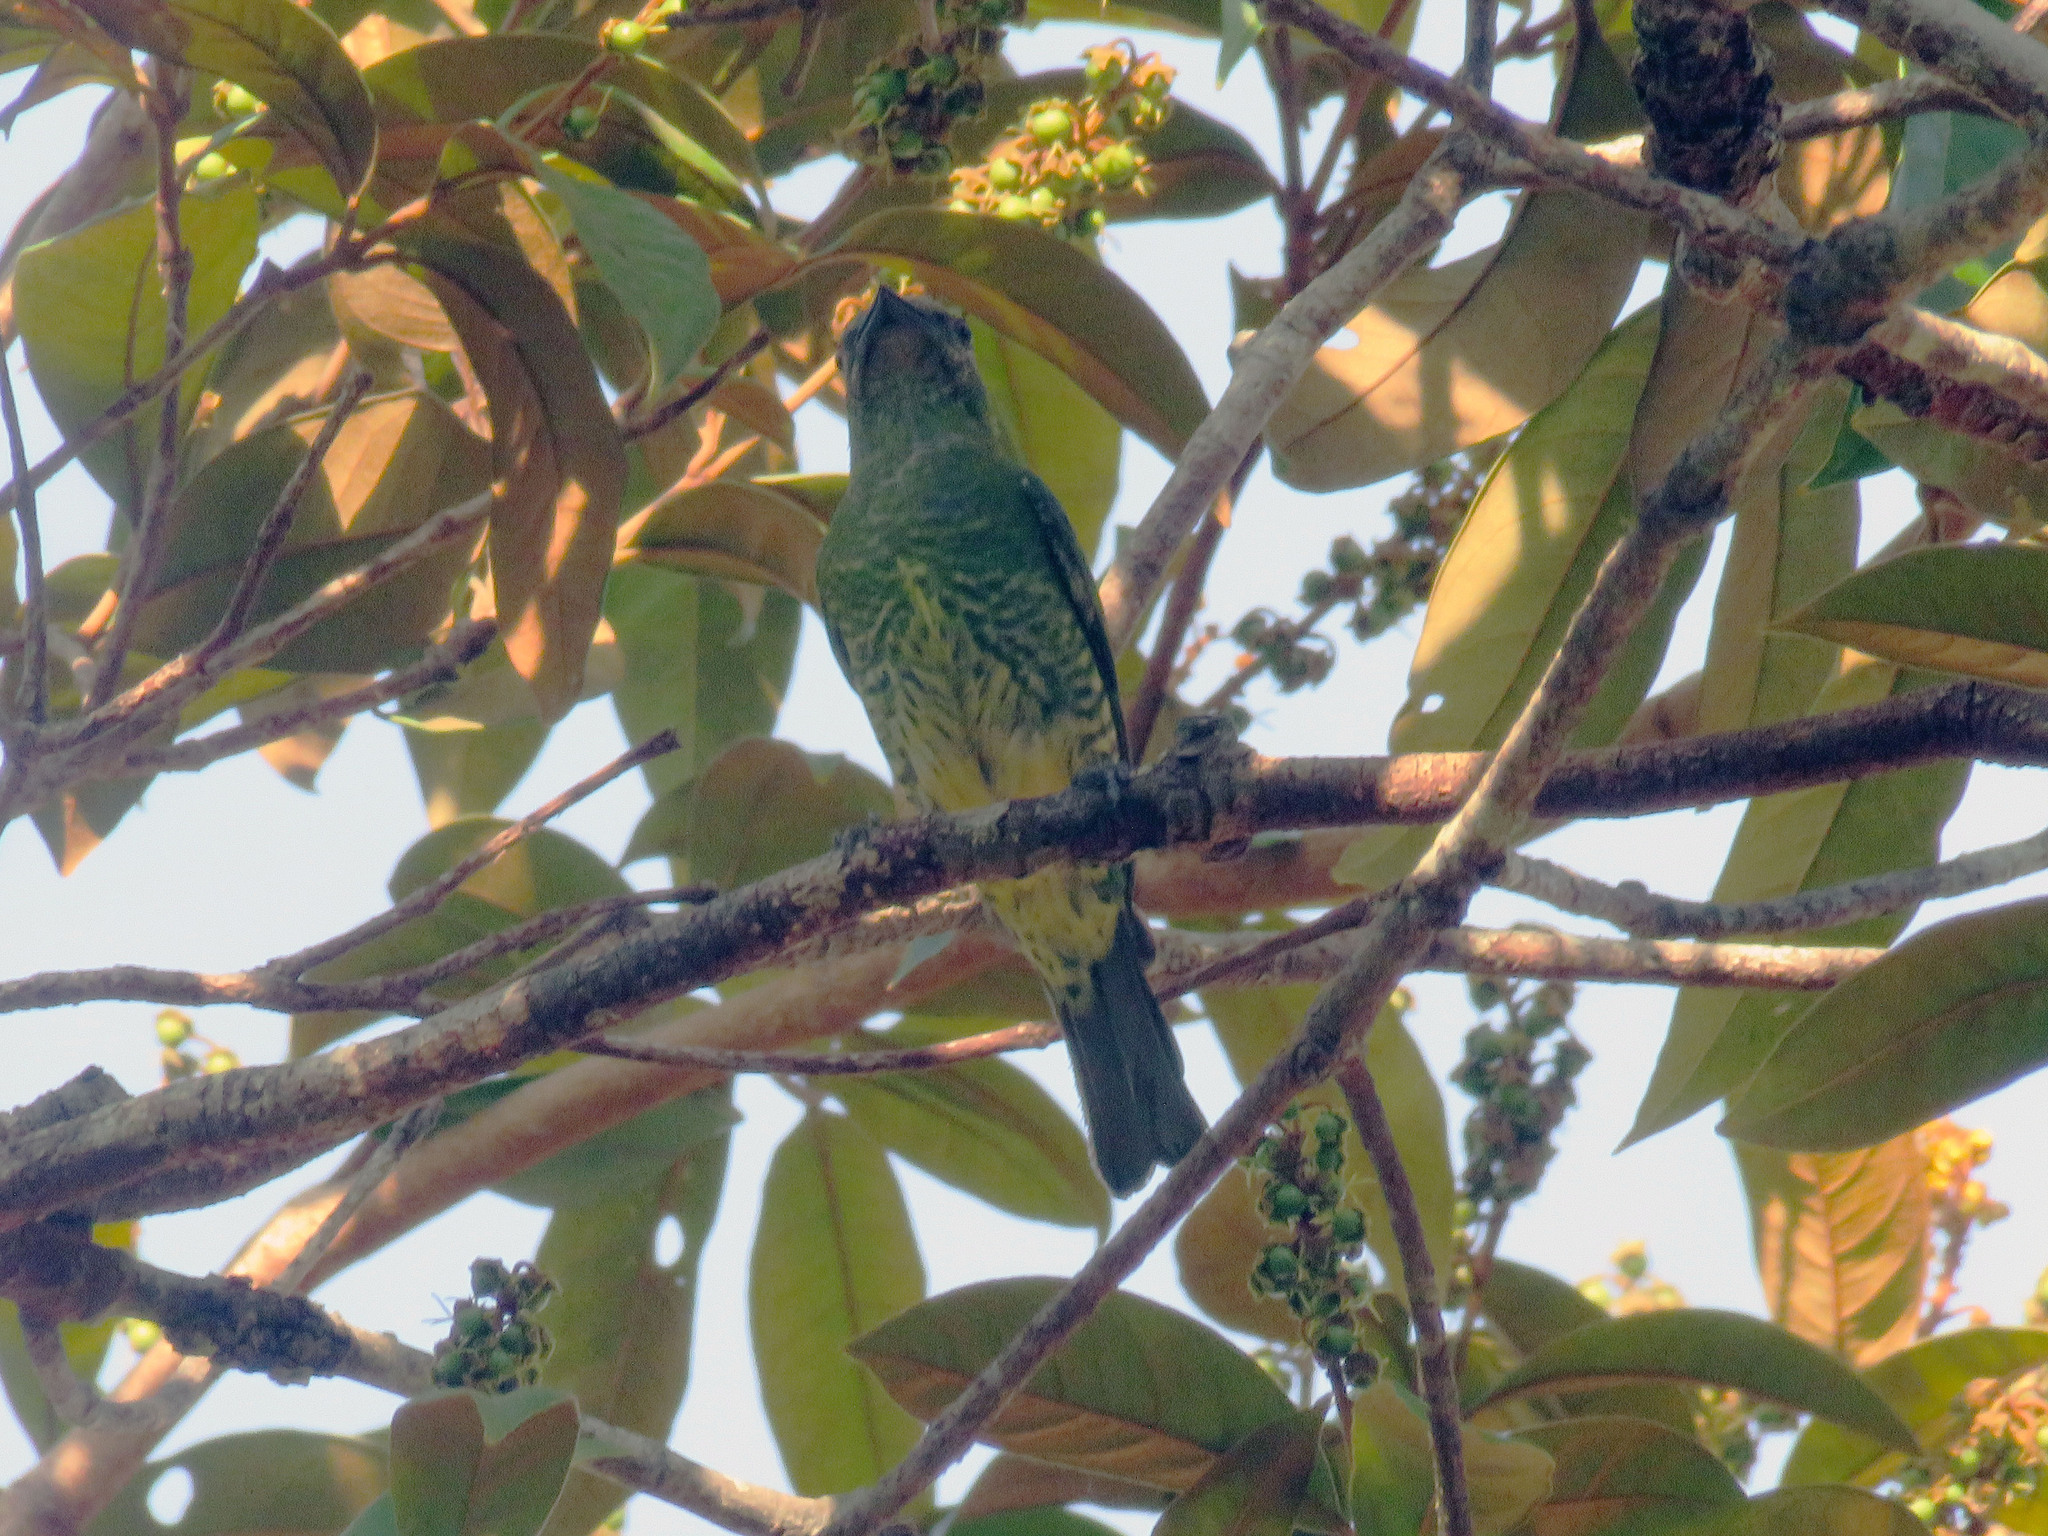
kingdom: Animalia
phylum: Chordata
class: Aves
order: Passeriformes
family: Thraupidae
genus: Tersina
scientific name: Tersina viridis
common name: Swallow tanager
